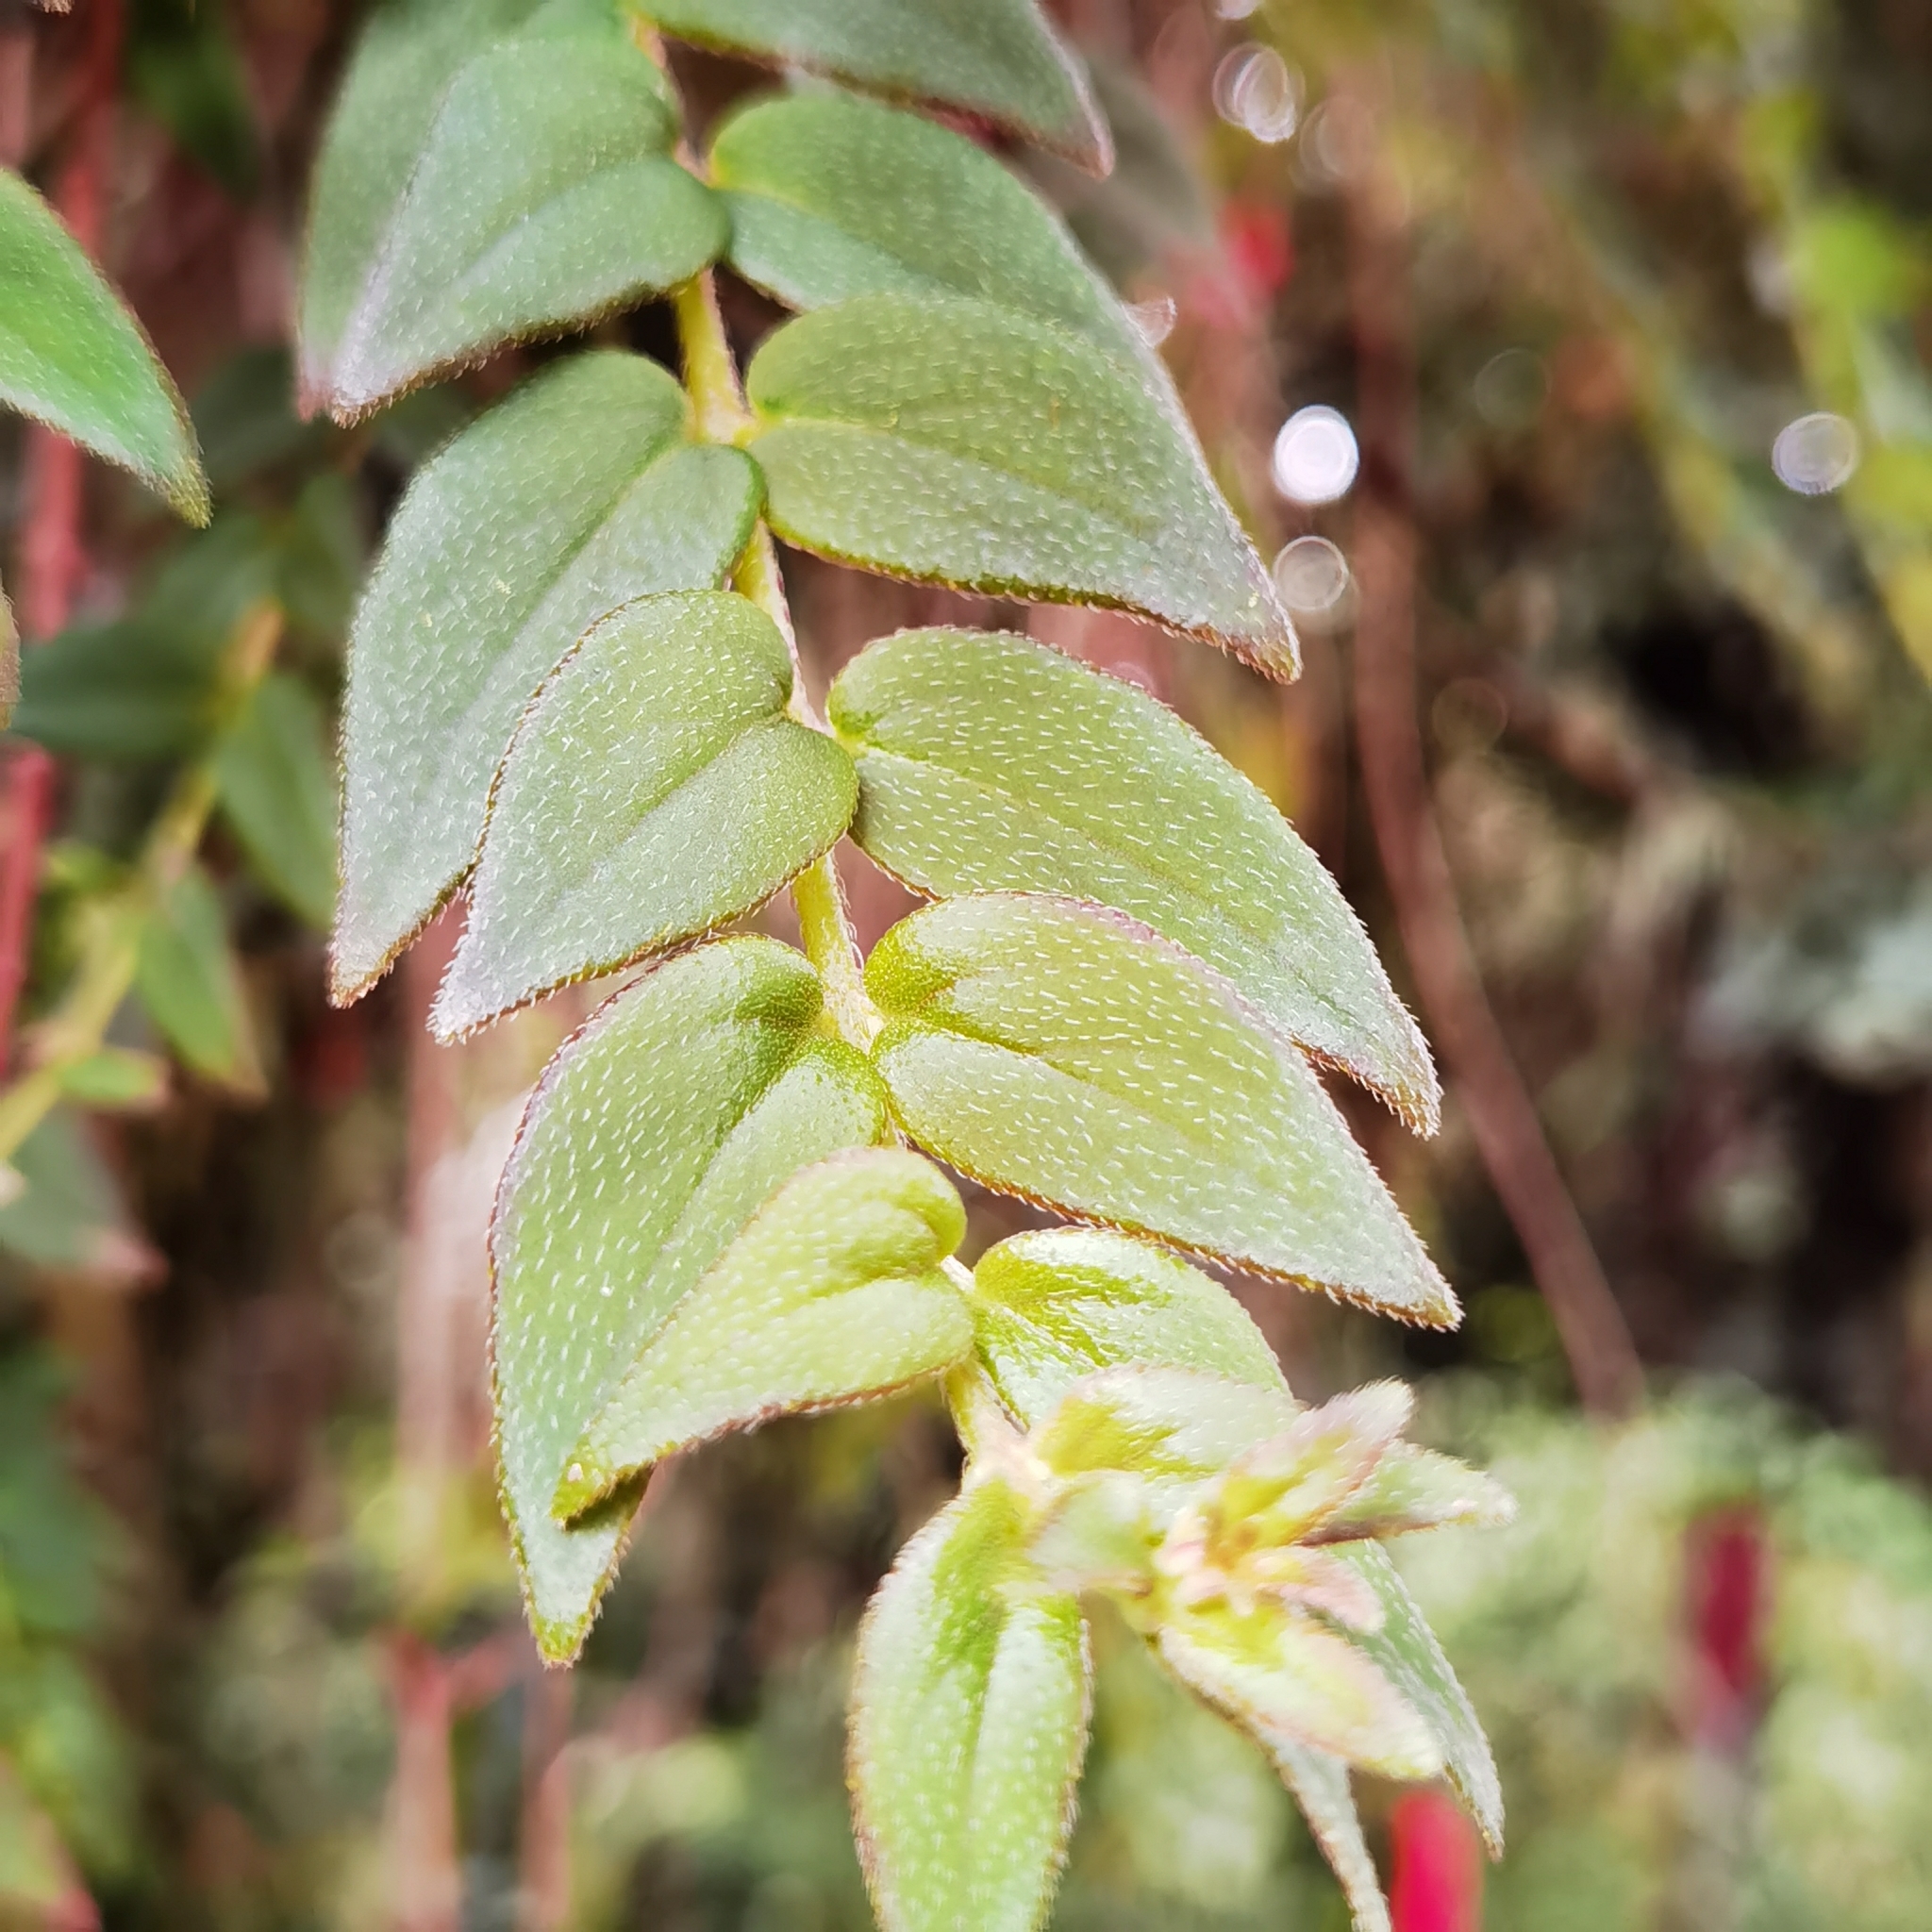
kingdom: Plantae
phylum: Tracheophyta
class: Magnoliopsida
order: Lamiales
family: Gesneriaceae
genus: Columnea
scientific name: Columnea microcalyx
